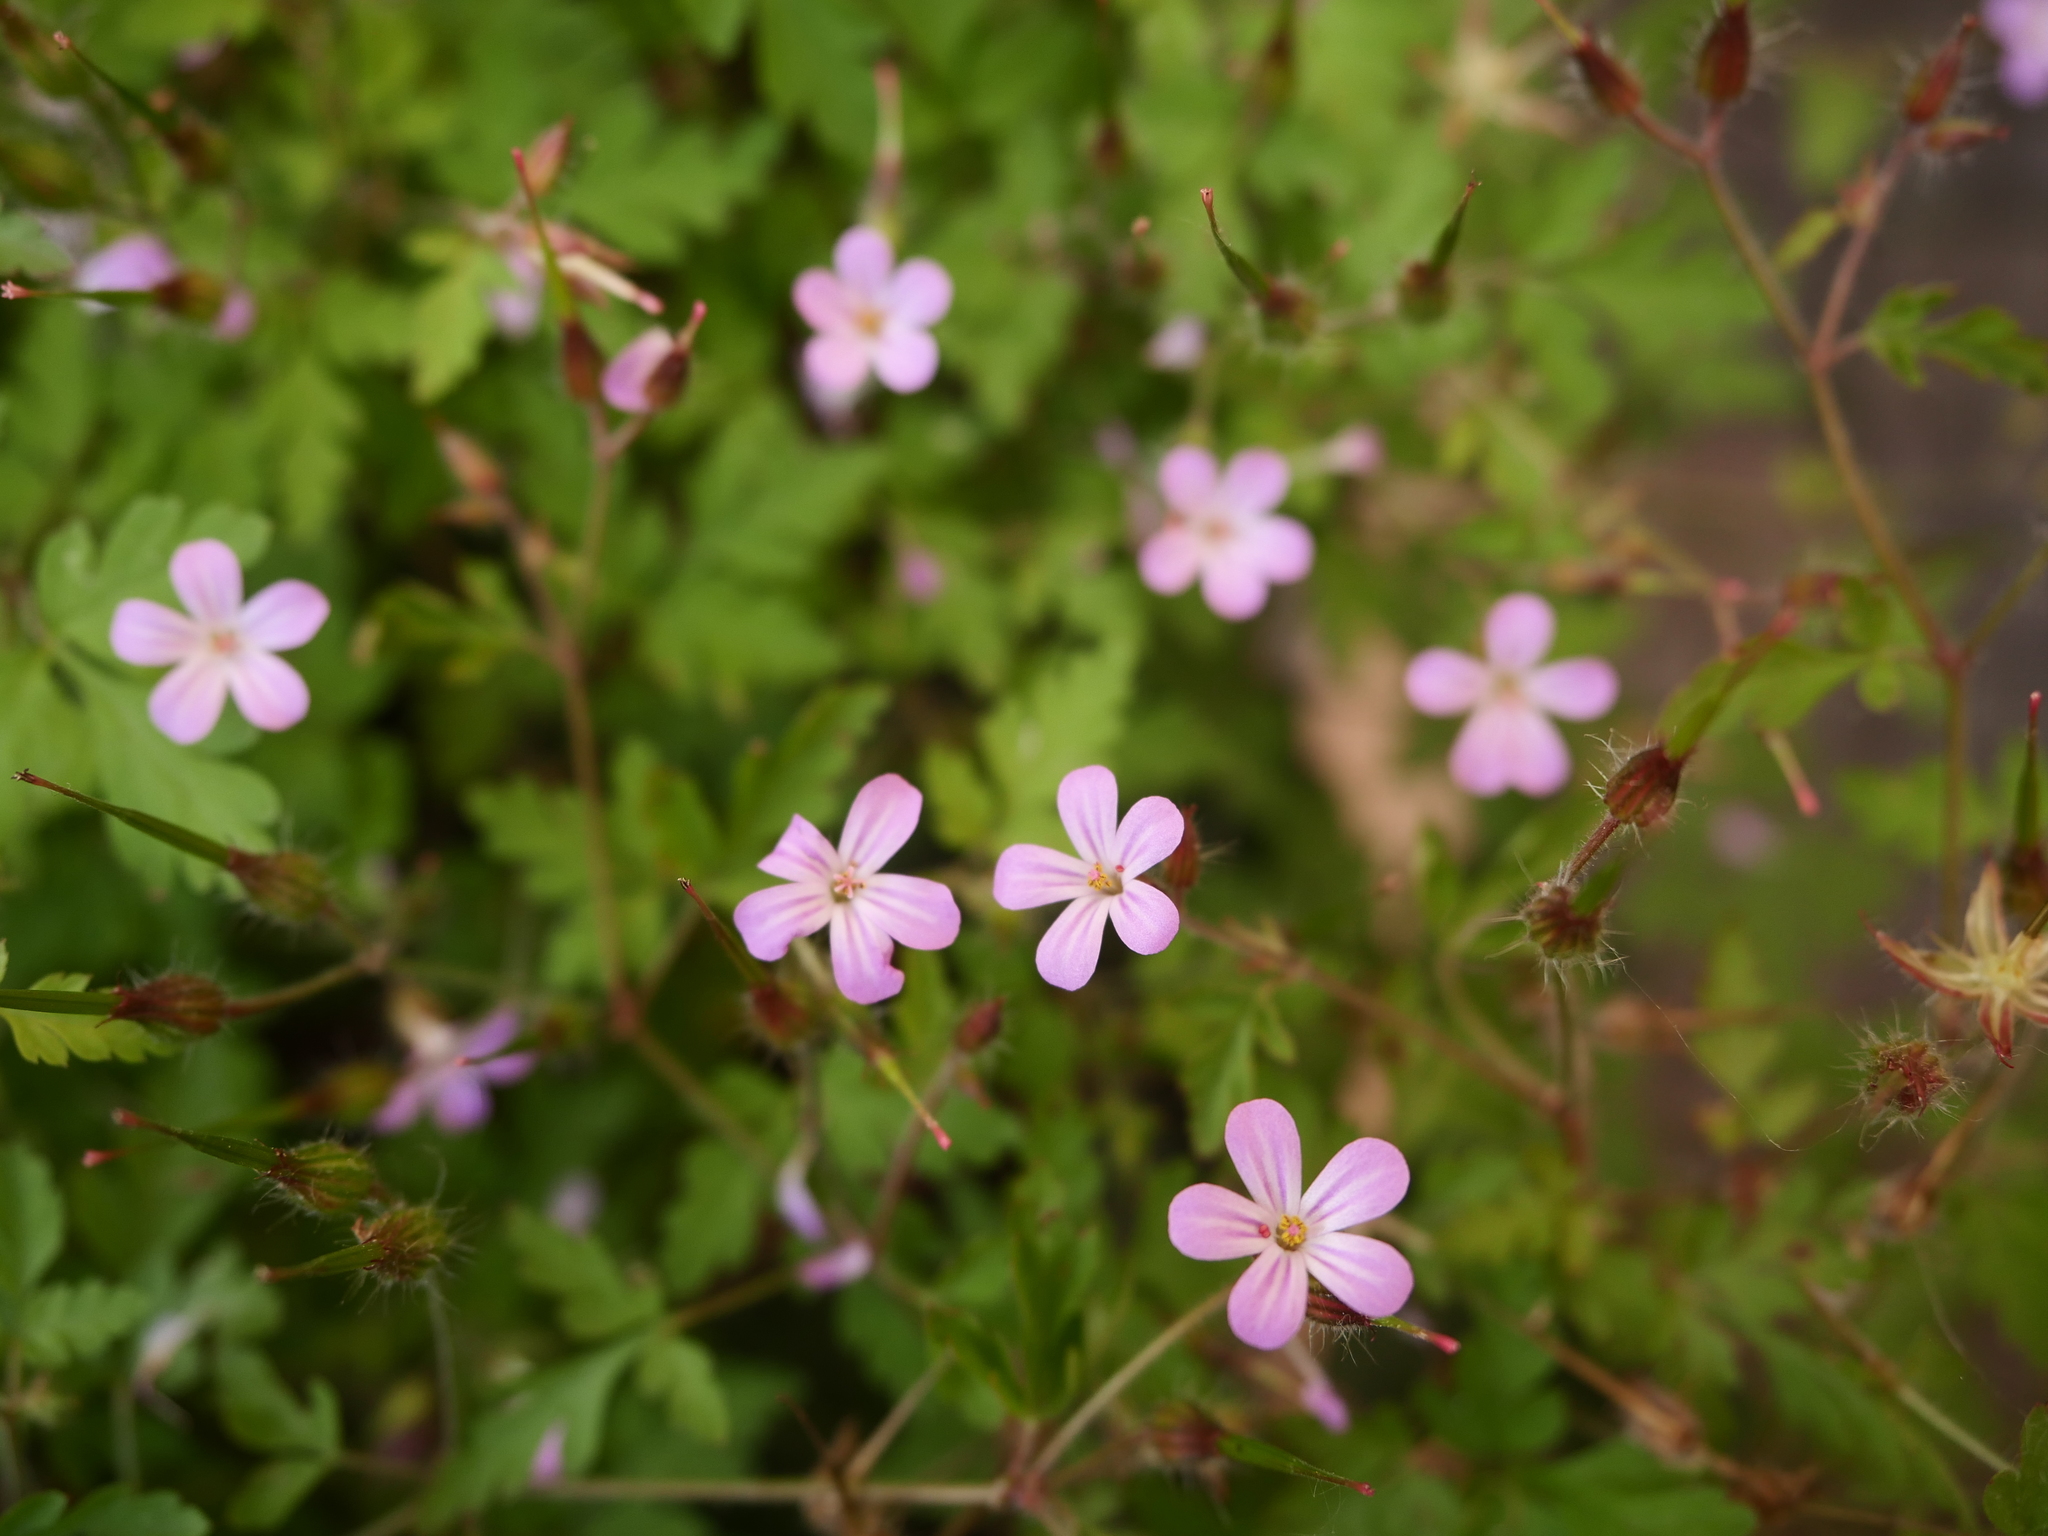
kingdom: Plantae
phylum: Tracheophyta
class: Magnoliopsida
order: Geraniales
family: Geraniaceae
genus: Geranium
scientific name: Geranium robertianum
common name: Herb-robert
